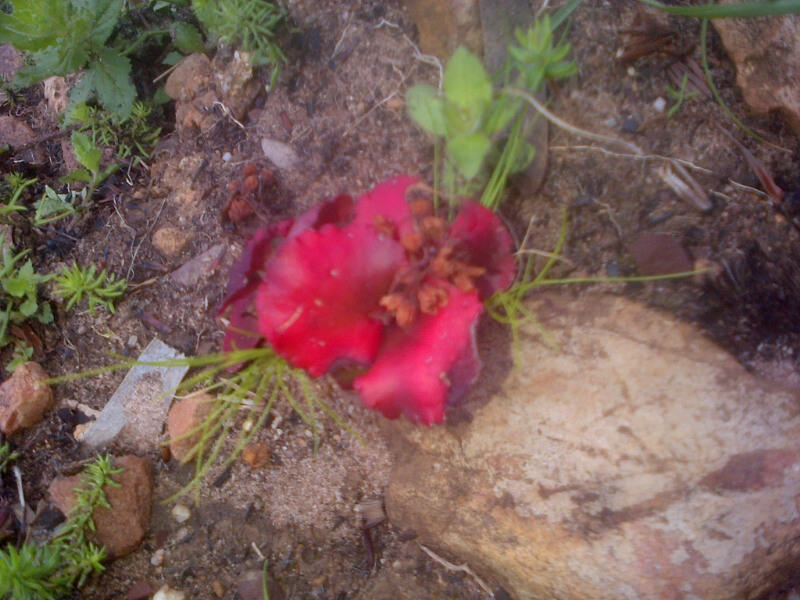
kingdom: Plantae
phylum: Tracheophyta
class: Magnoliopsida
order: Saxifragales
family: Crassulaceae
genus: Crassula
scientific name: Crassula capensis
